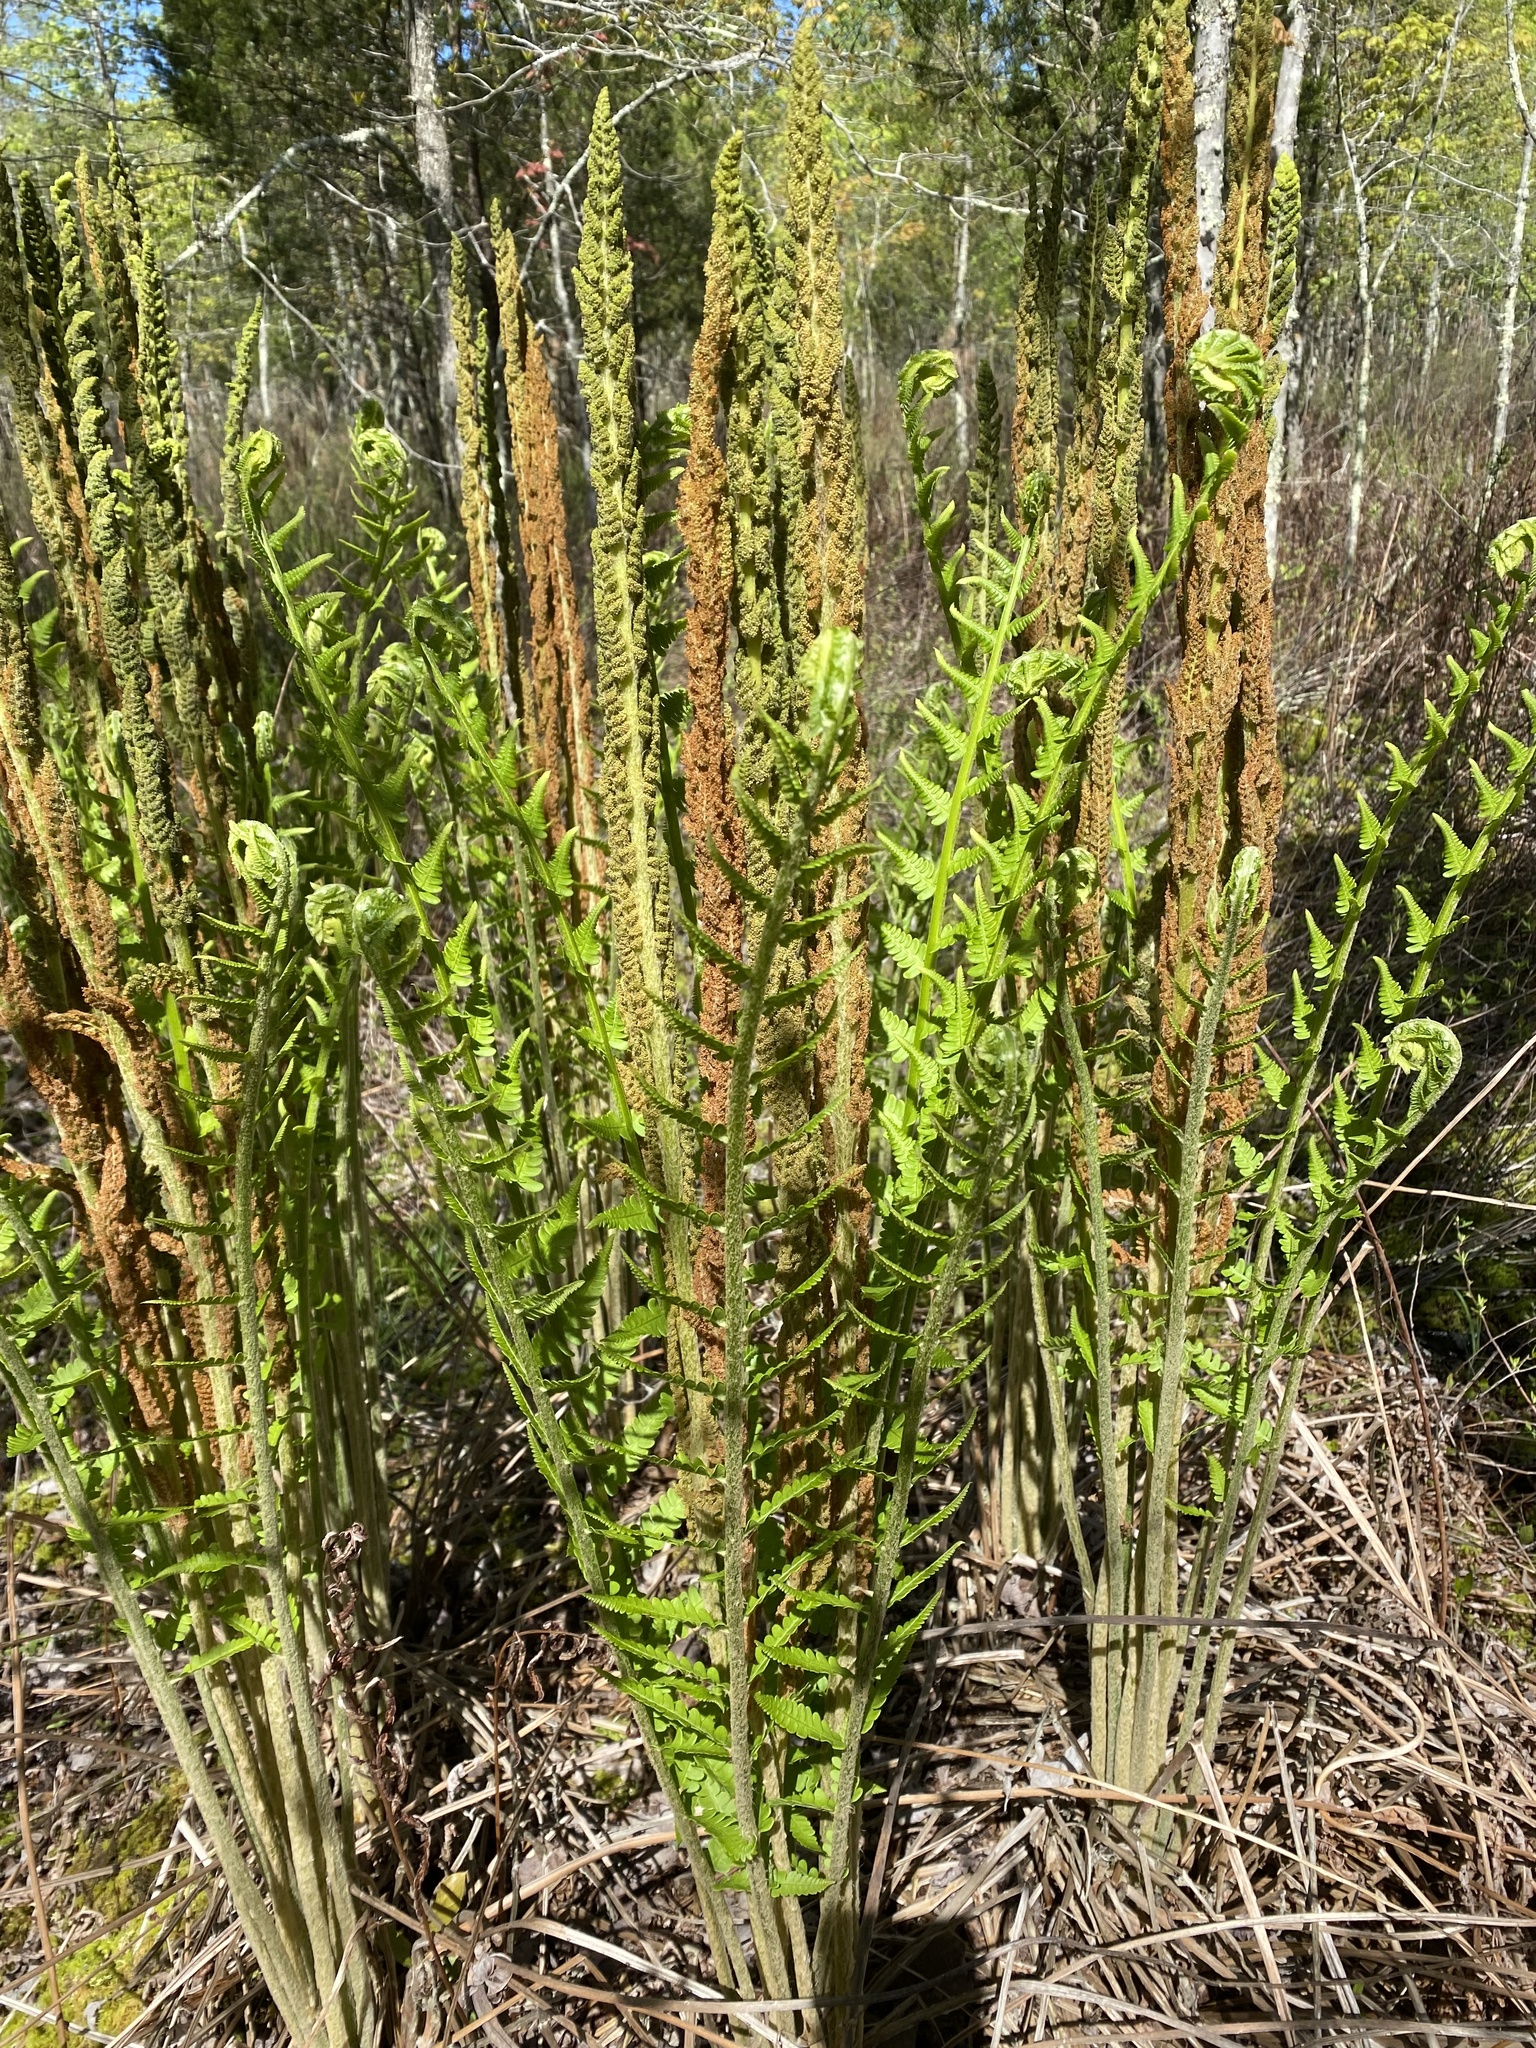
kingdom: Plantae
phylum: Tracheophyta
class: Polypodiopsida
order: Osmundales
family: Osmundaceae
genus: Osmundastrum
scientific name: Osmundastrum cinnamomeum
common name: Cinnamon fern
